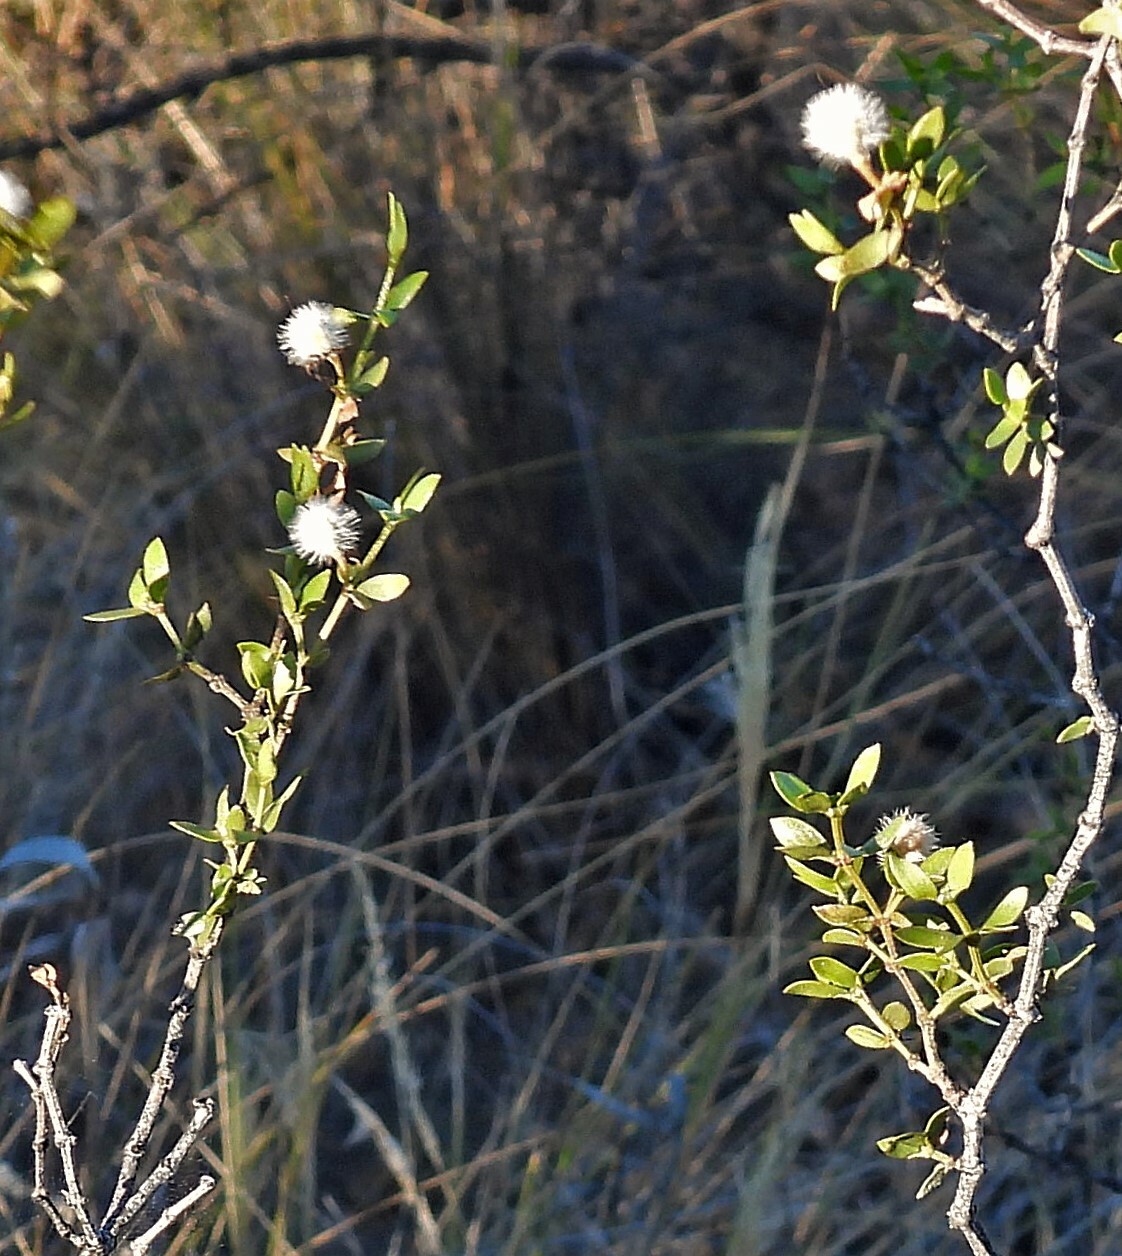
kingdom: Plantae
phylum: Tracheophyta
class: Magnoliopsida
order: Zygophyllales
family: Zygophyllaceae
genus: Larrea
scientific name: Larrea divaricata
